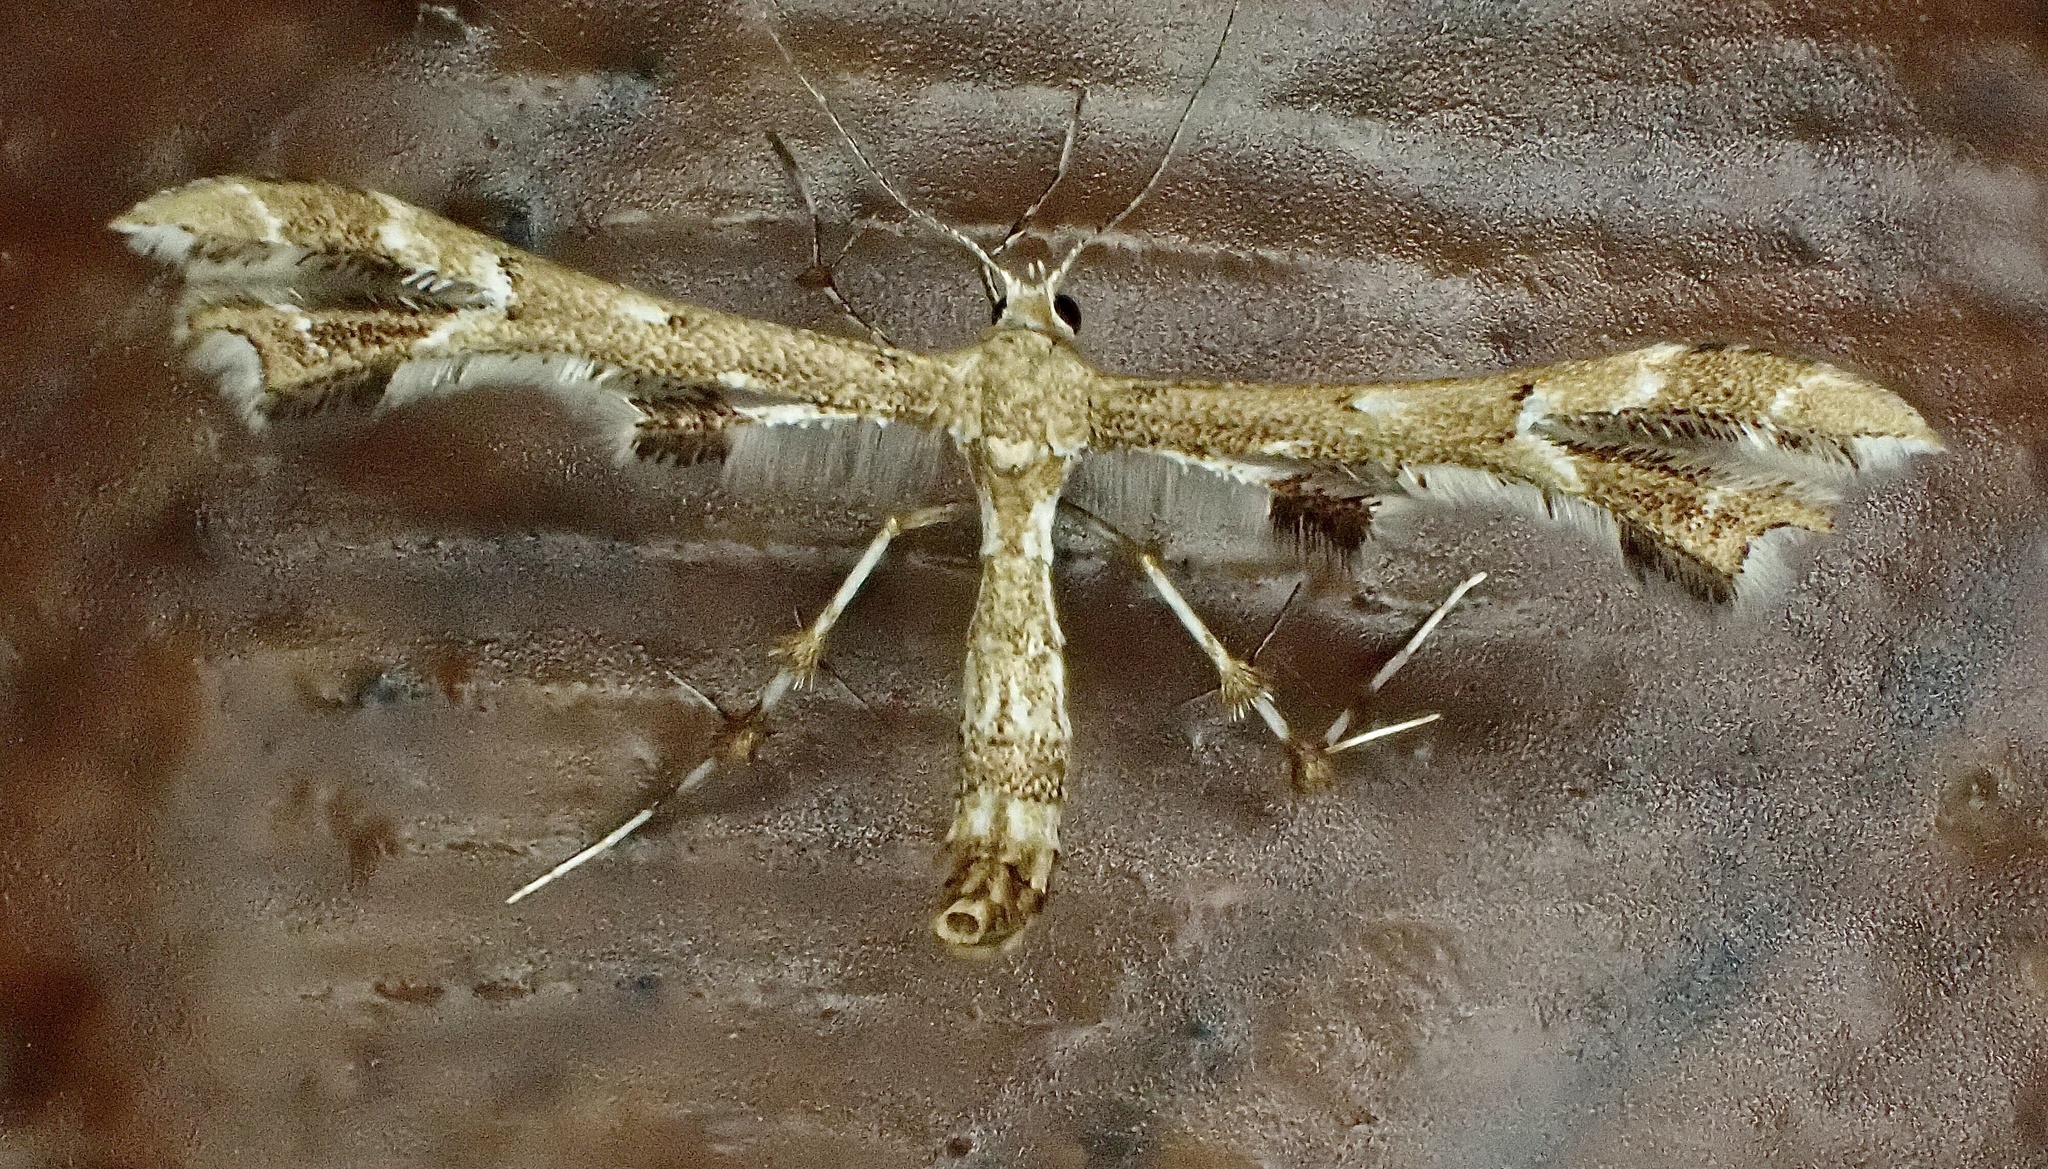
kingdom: Animalia
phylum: Arthropoda
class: Insecta
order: Lepidoptera
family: Pterophoridae
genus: Geina
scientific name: Geina
